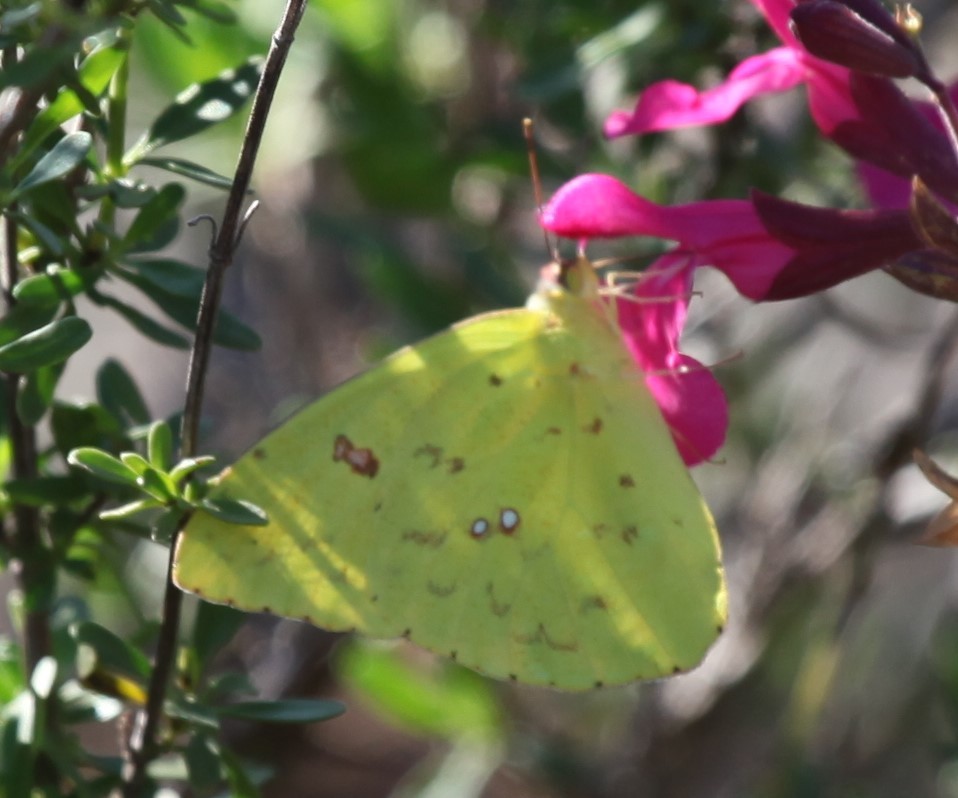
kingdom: Animalia
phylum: Arthropoda
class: Insecta
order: Lepidoptera
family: Pieridae
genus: Phoebis
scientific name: Phoebis sennae
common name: Cloudless sulphur
